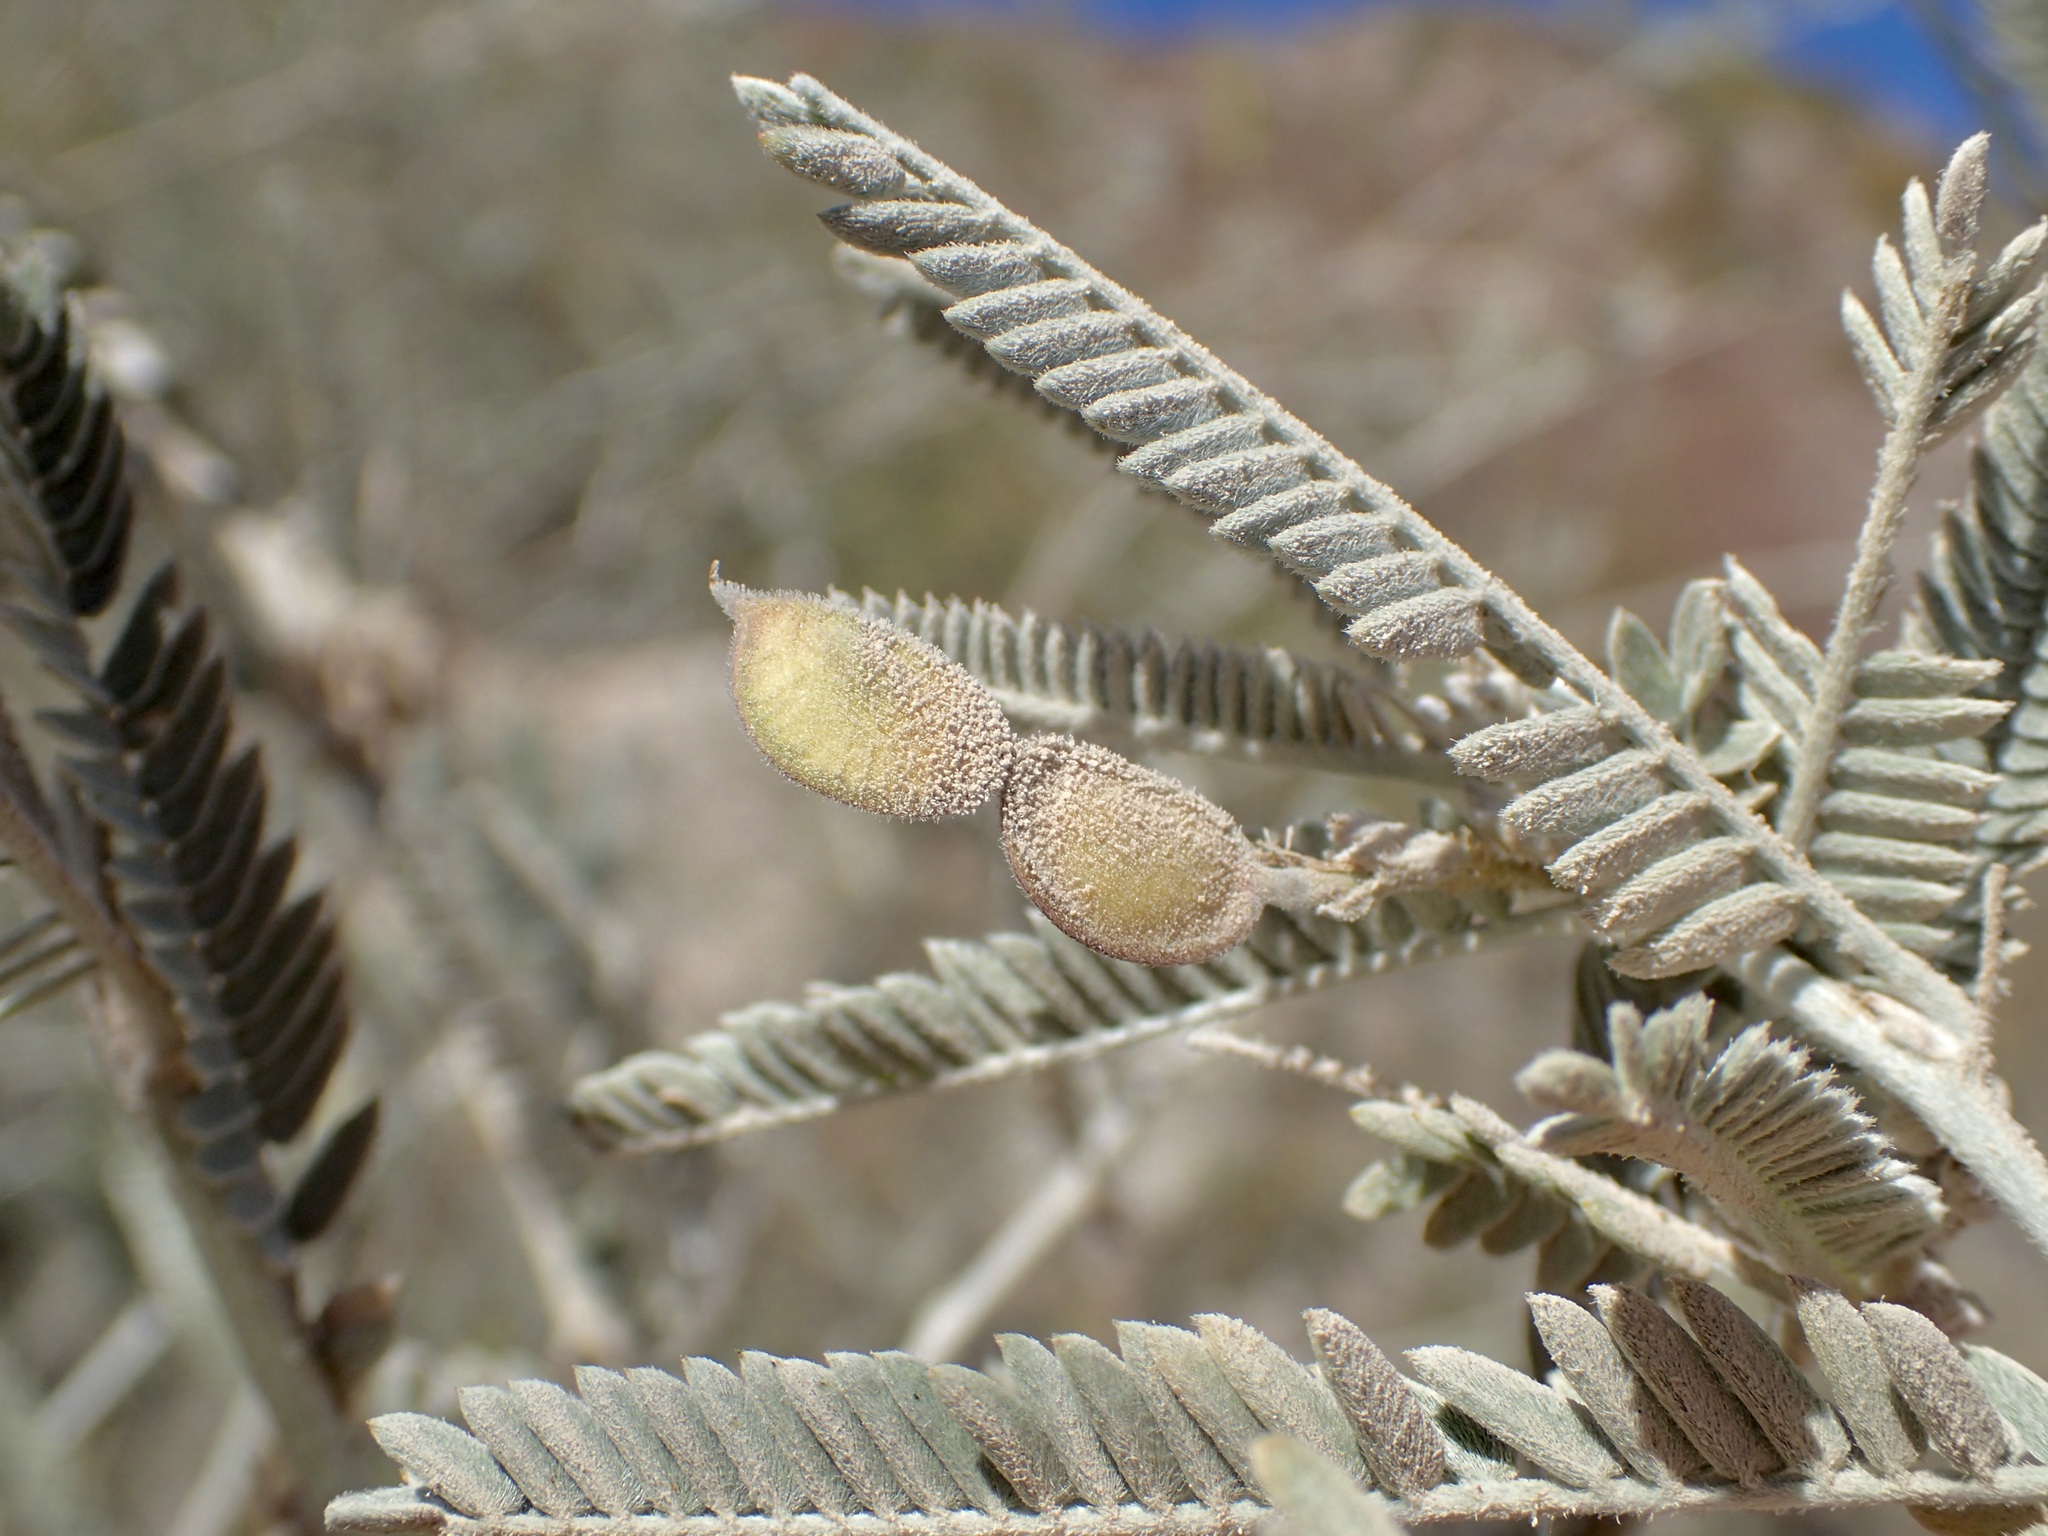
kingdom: Plantae
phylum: Tracheophyta
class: Magnoliopsida
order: Fabales
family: Fabaceae
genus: Ctenodon
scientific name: Ctenodon niveus
